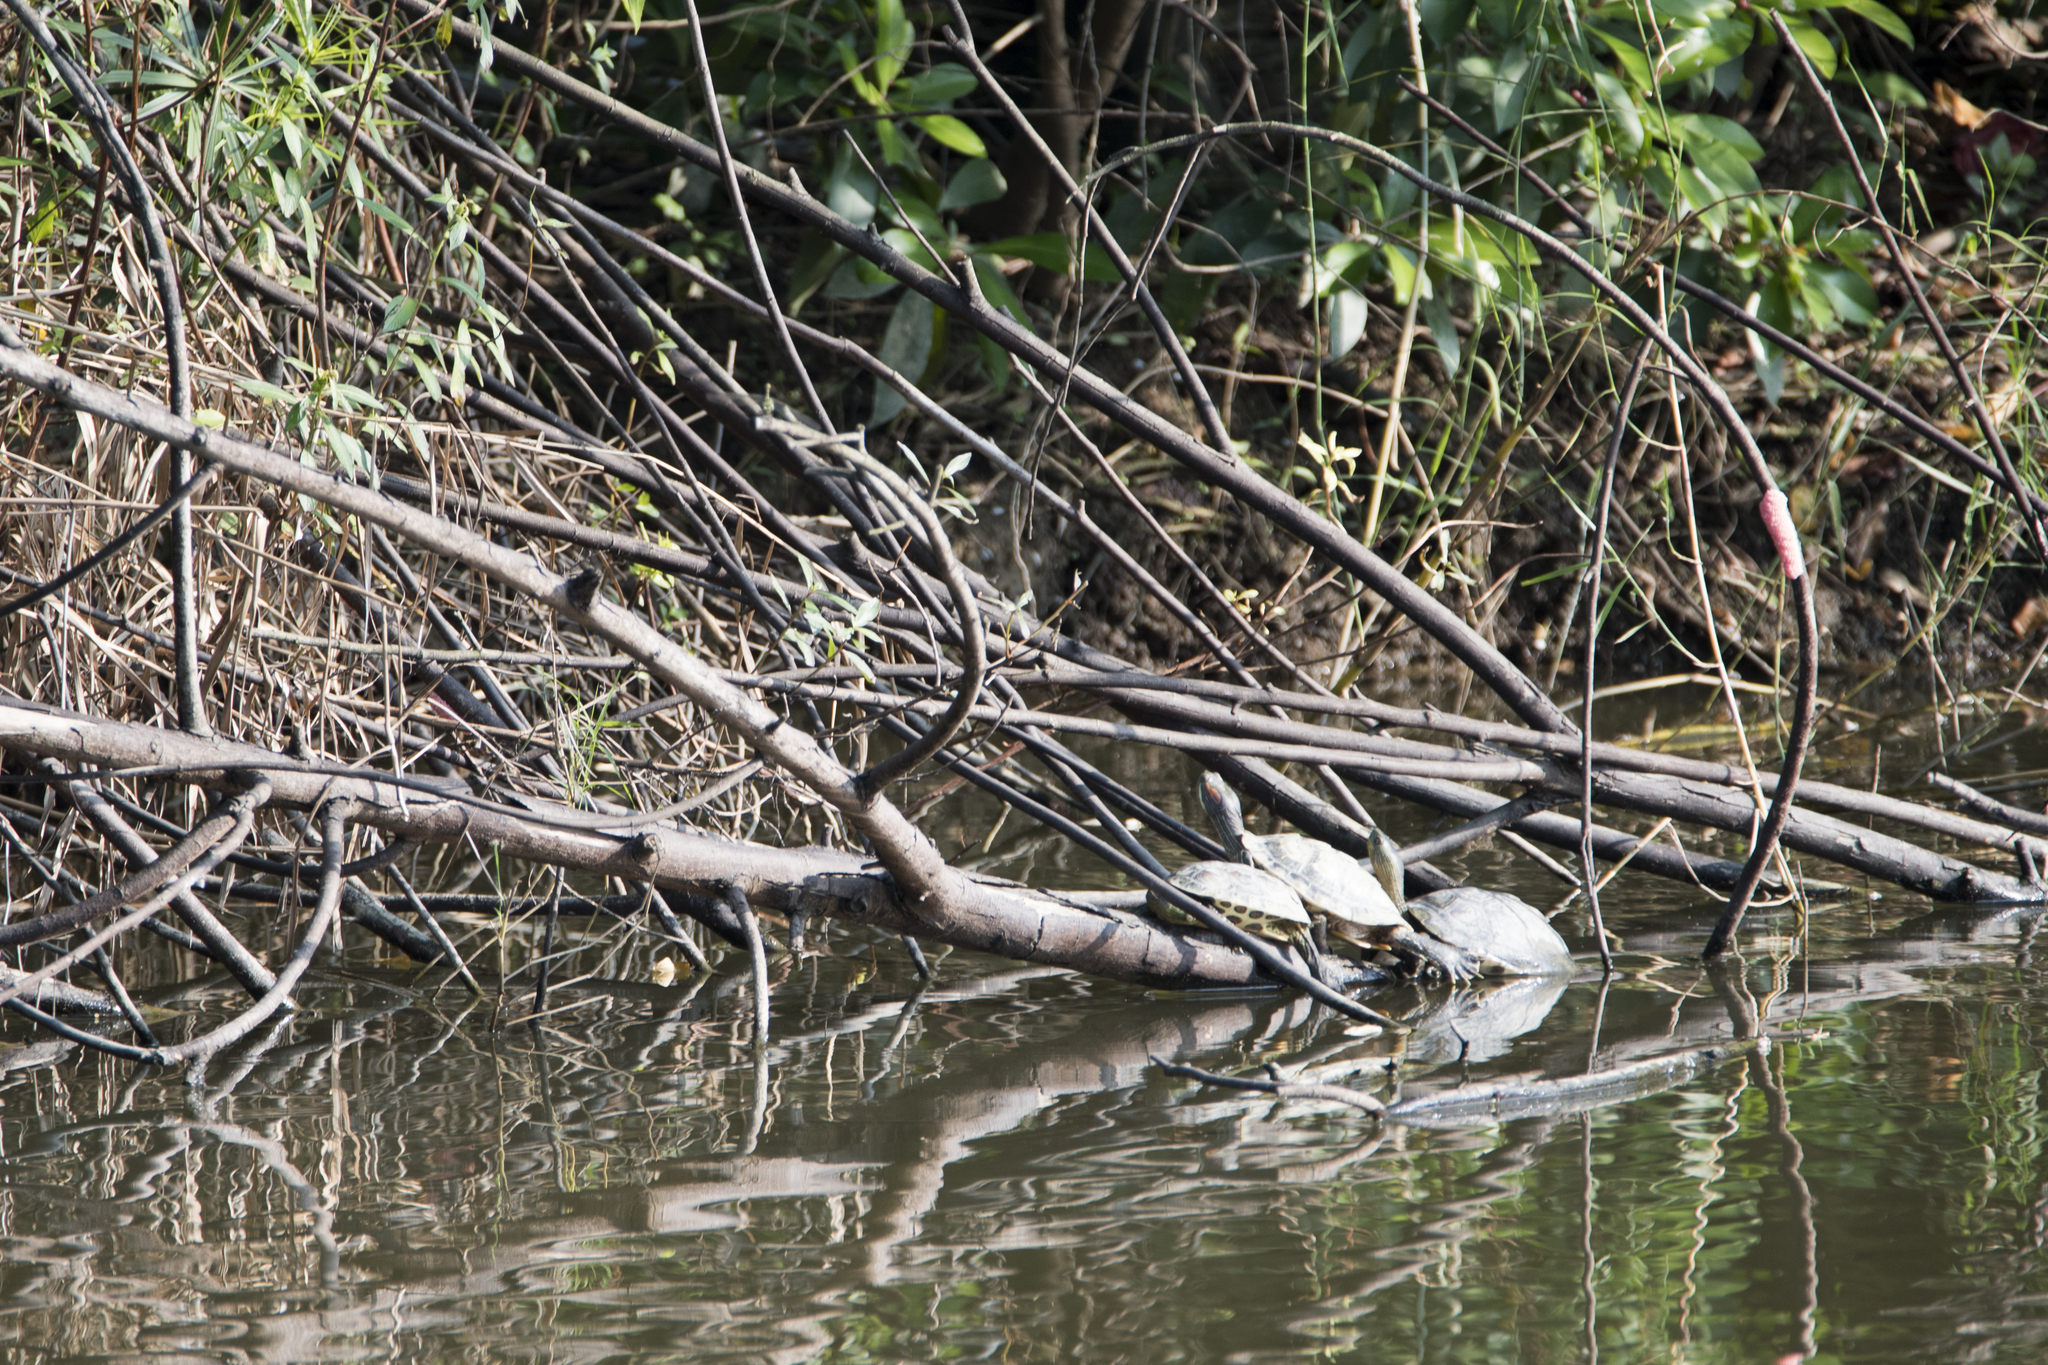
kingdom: Animalia
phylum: Chordata
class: Testudines
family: Geoemydidae
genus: Mauremys
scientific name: Mauremys sinensis
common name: Chinese stripe-necked turtle
